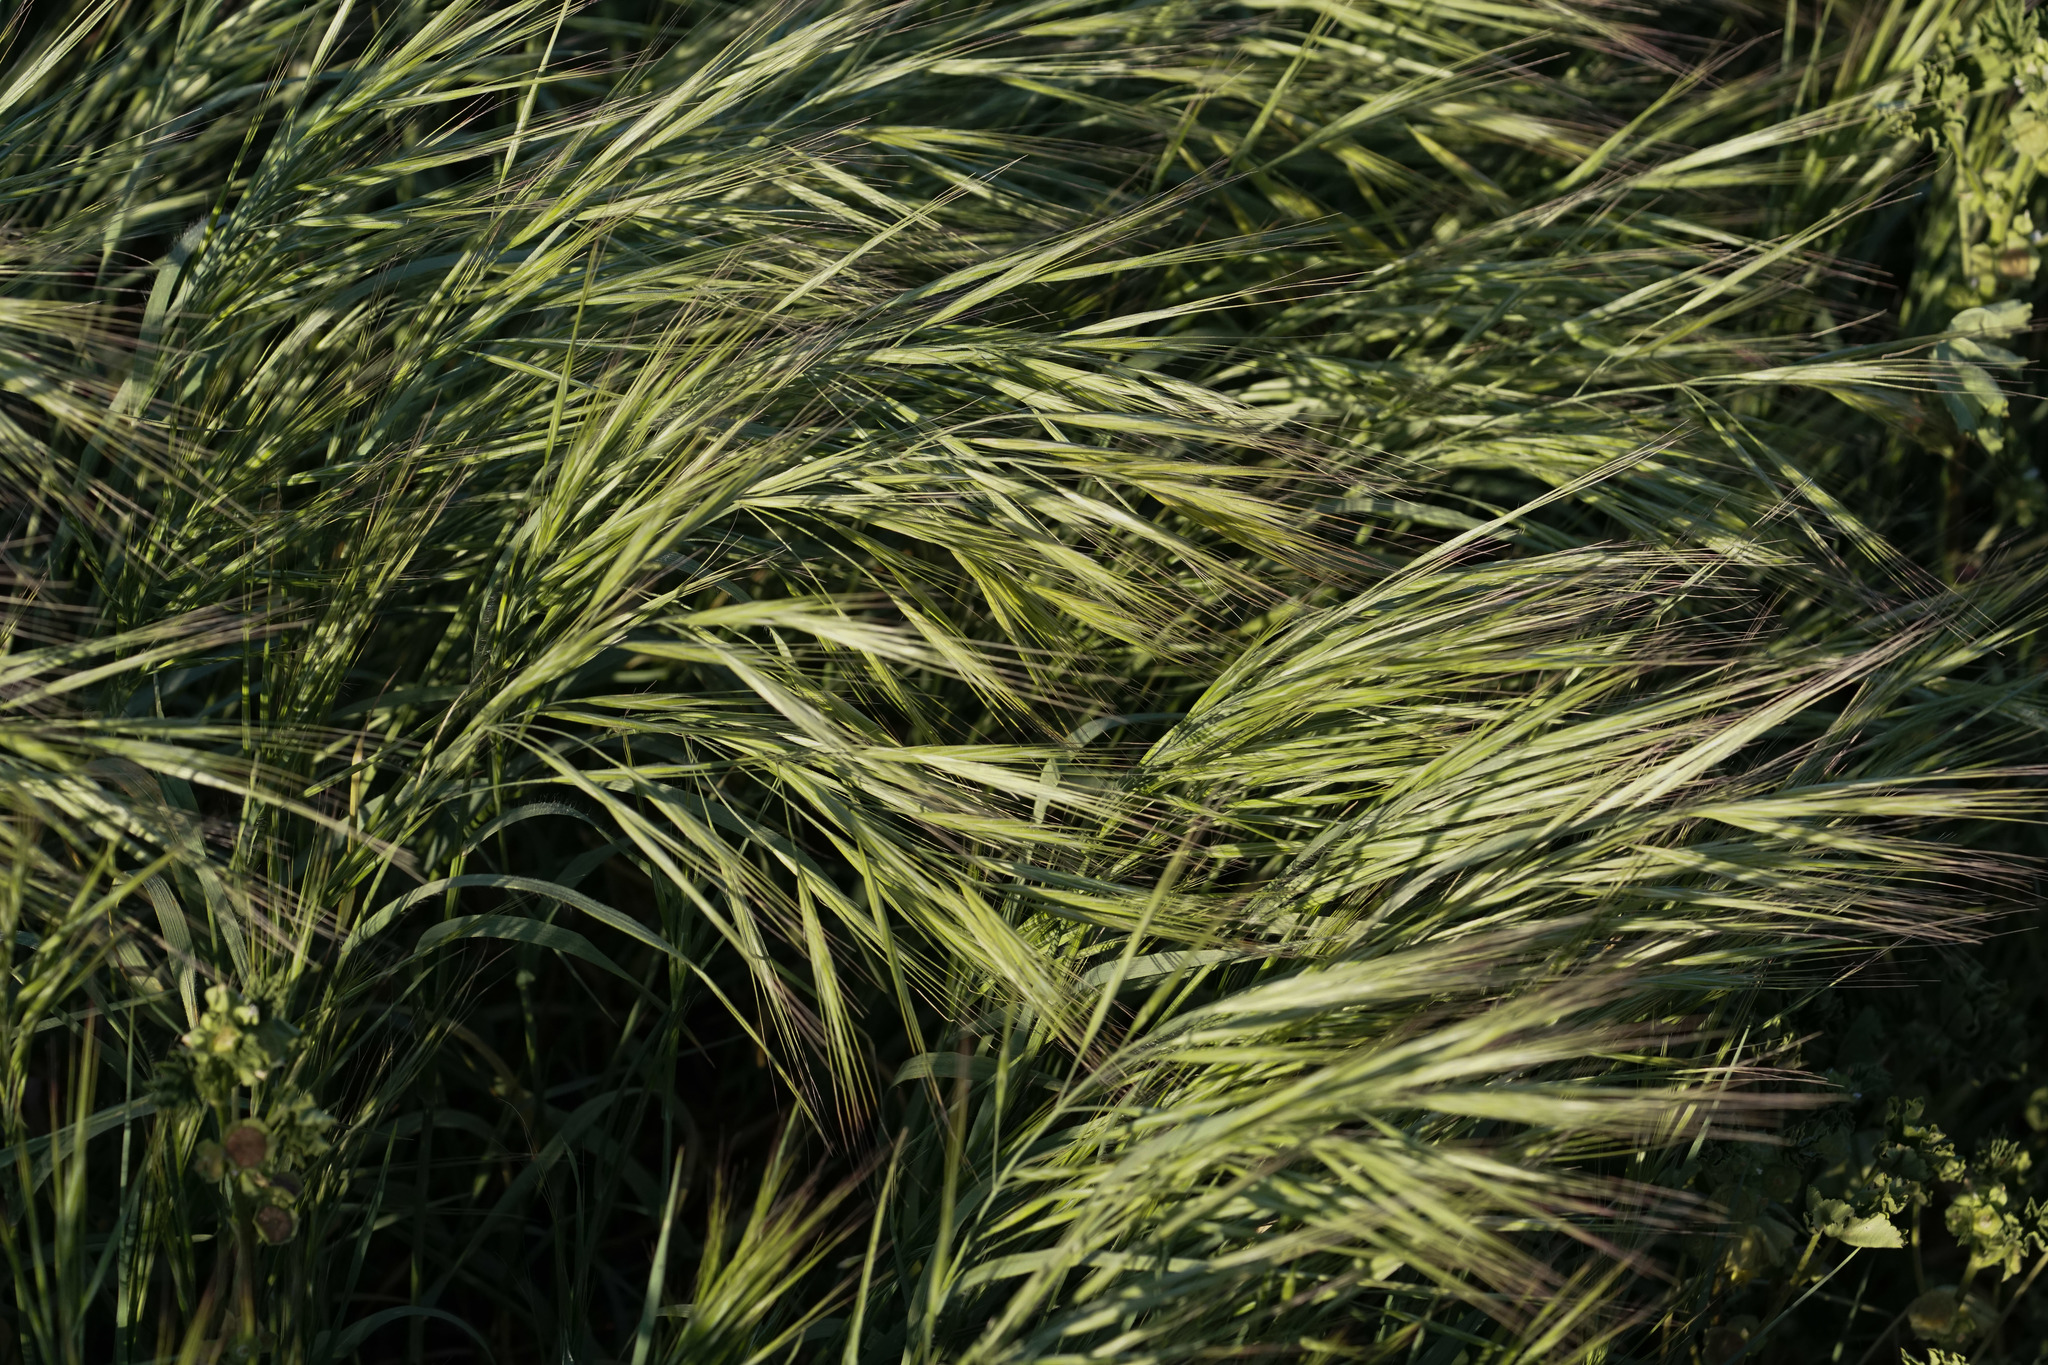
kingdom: Plantae
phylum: Tracheophyta
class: Liliopsida
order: Poales
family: Poaceae
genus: Bromus
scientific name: Bromus diandrus
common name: Ripgut brome
